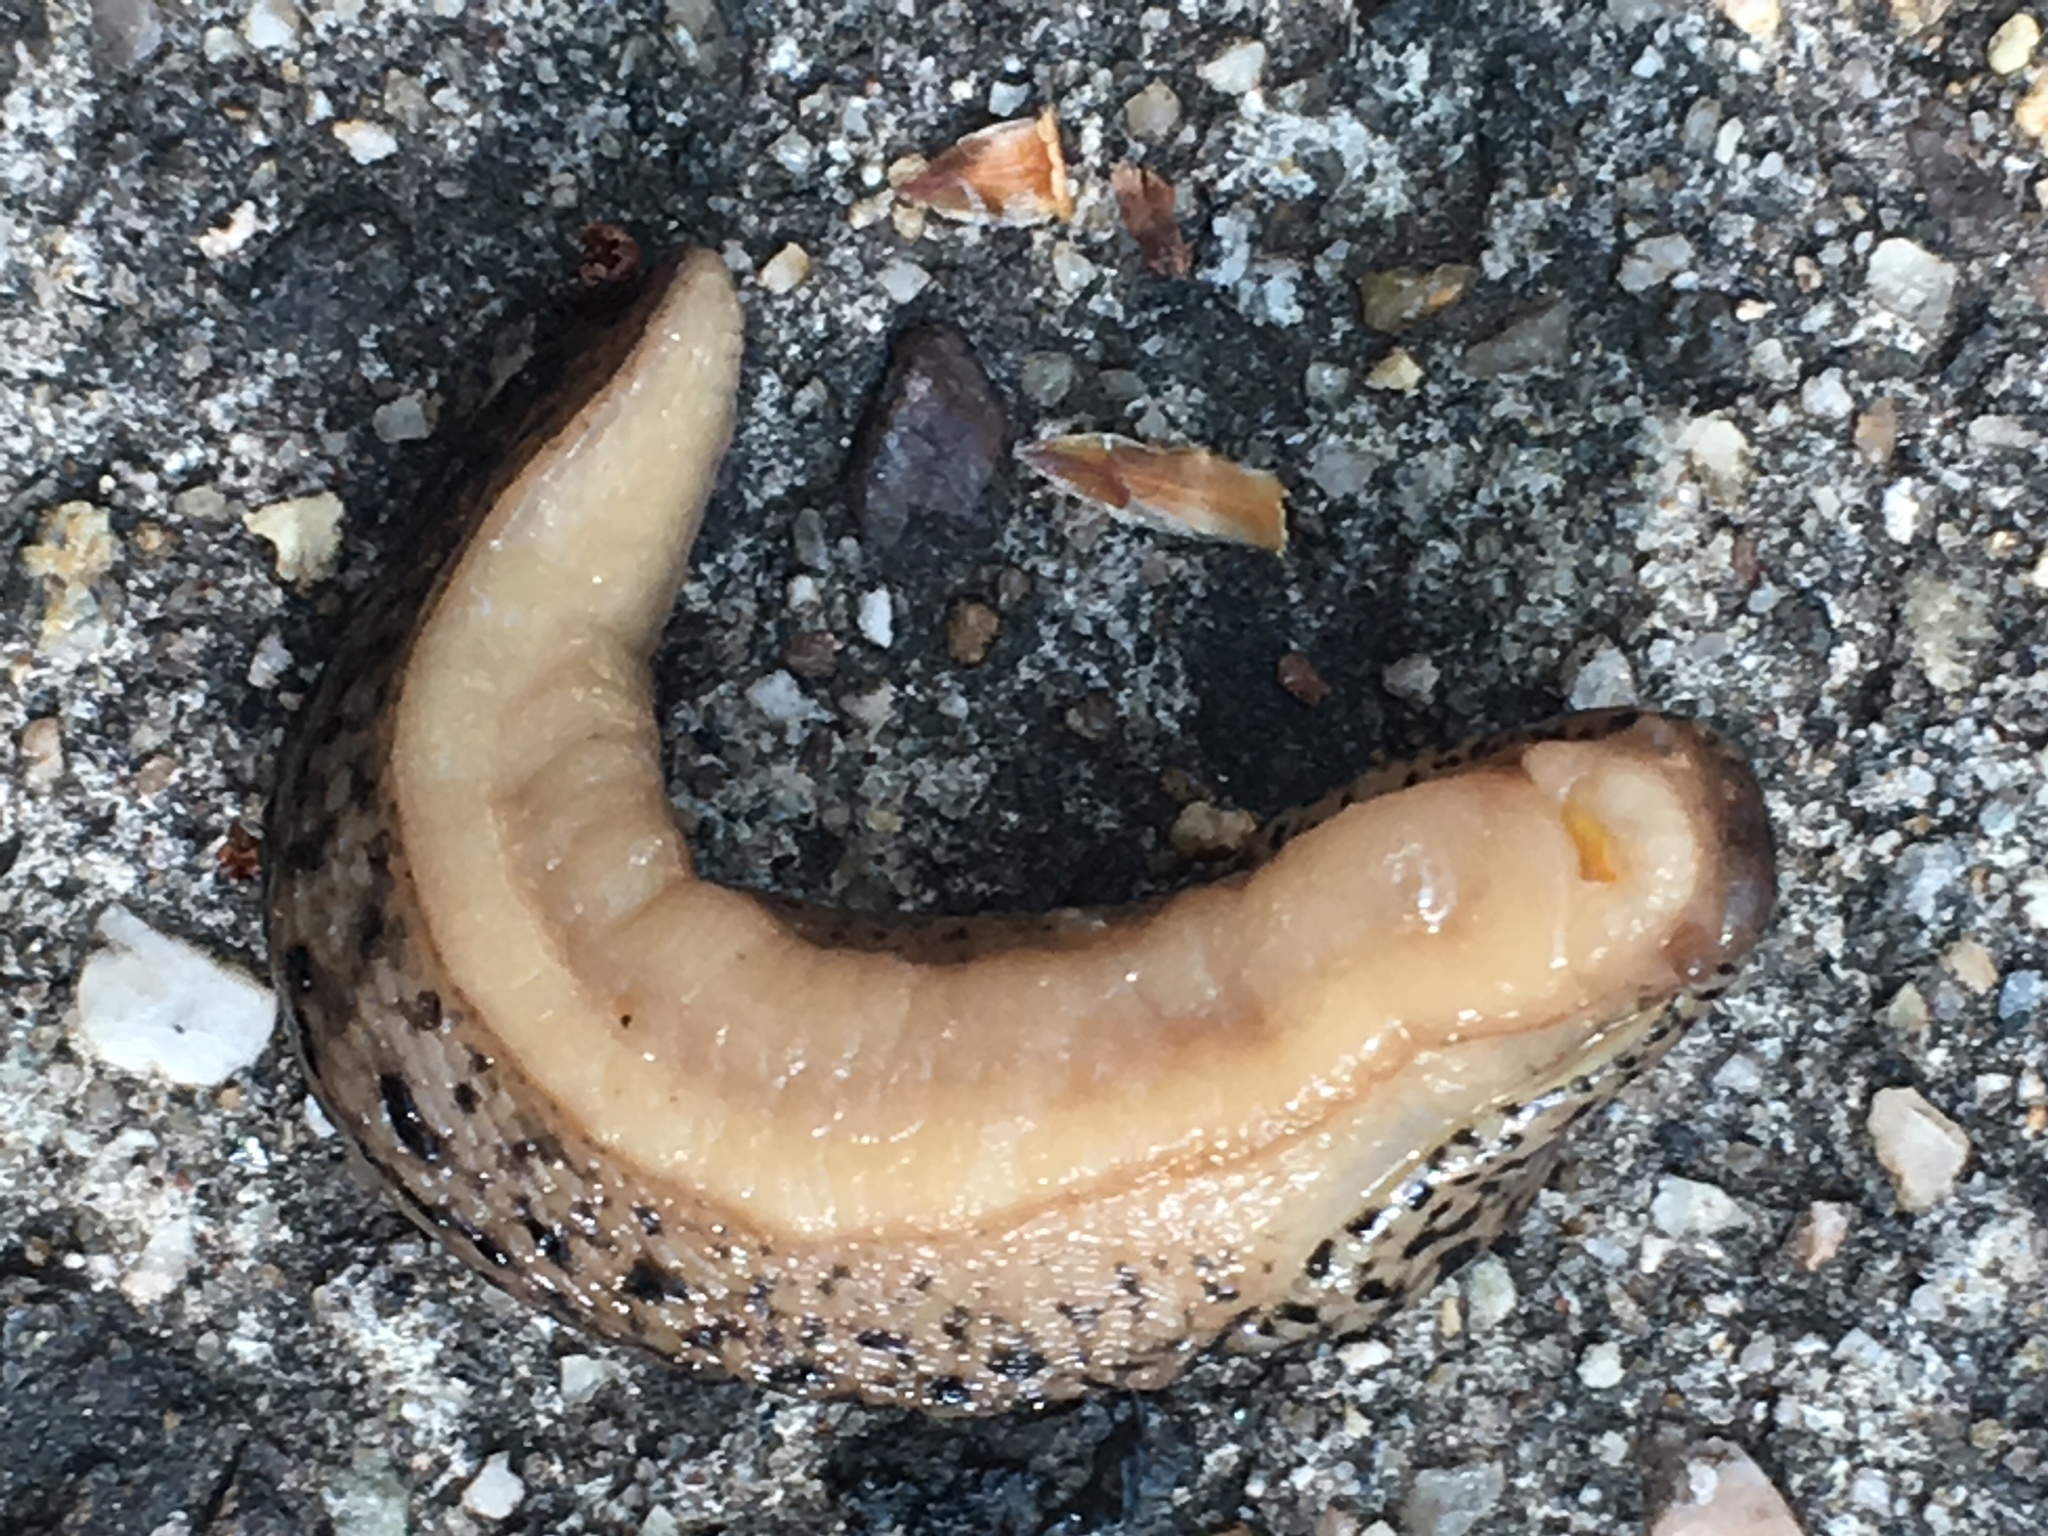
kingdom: Animalia
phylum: Mollusca
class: Gastropoda
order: Stylommatophora
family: Limacidae
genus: Limax
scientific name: Limax maximus
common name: Great grey slug
